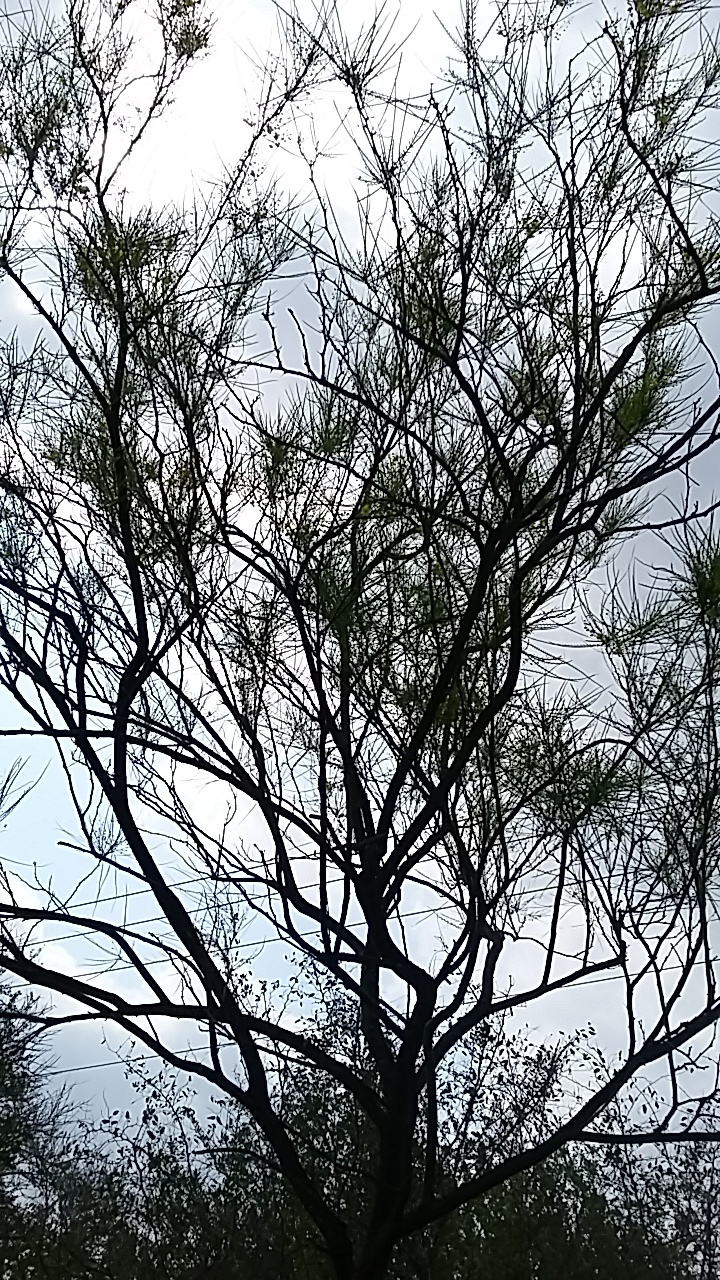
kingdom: Plantae
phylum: Tracheophyta
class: Magnoliopsida
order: Fabales
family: Fabaceae
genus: Parkinsonia
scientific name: Parkinsonia aculeata
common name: Jerusalem thorn
